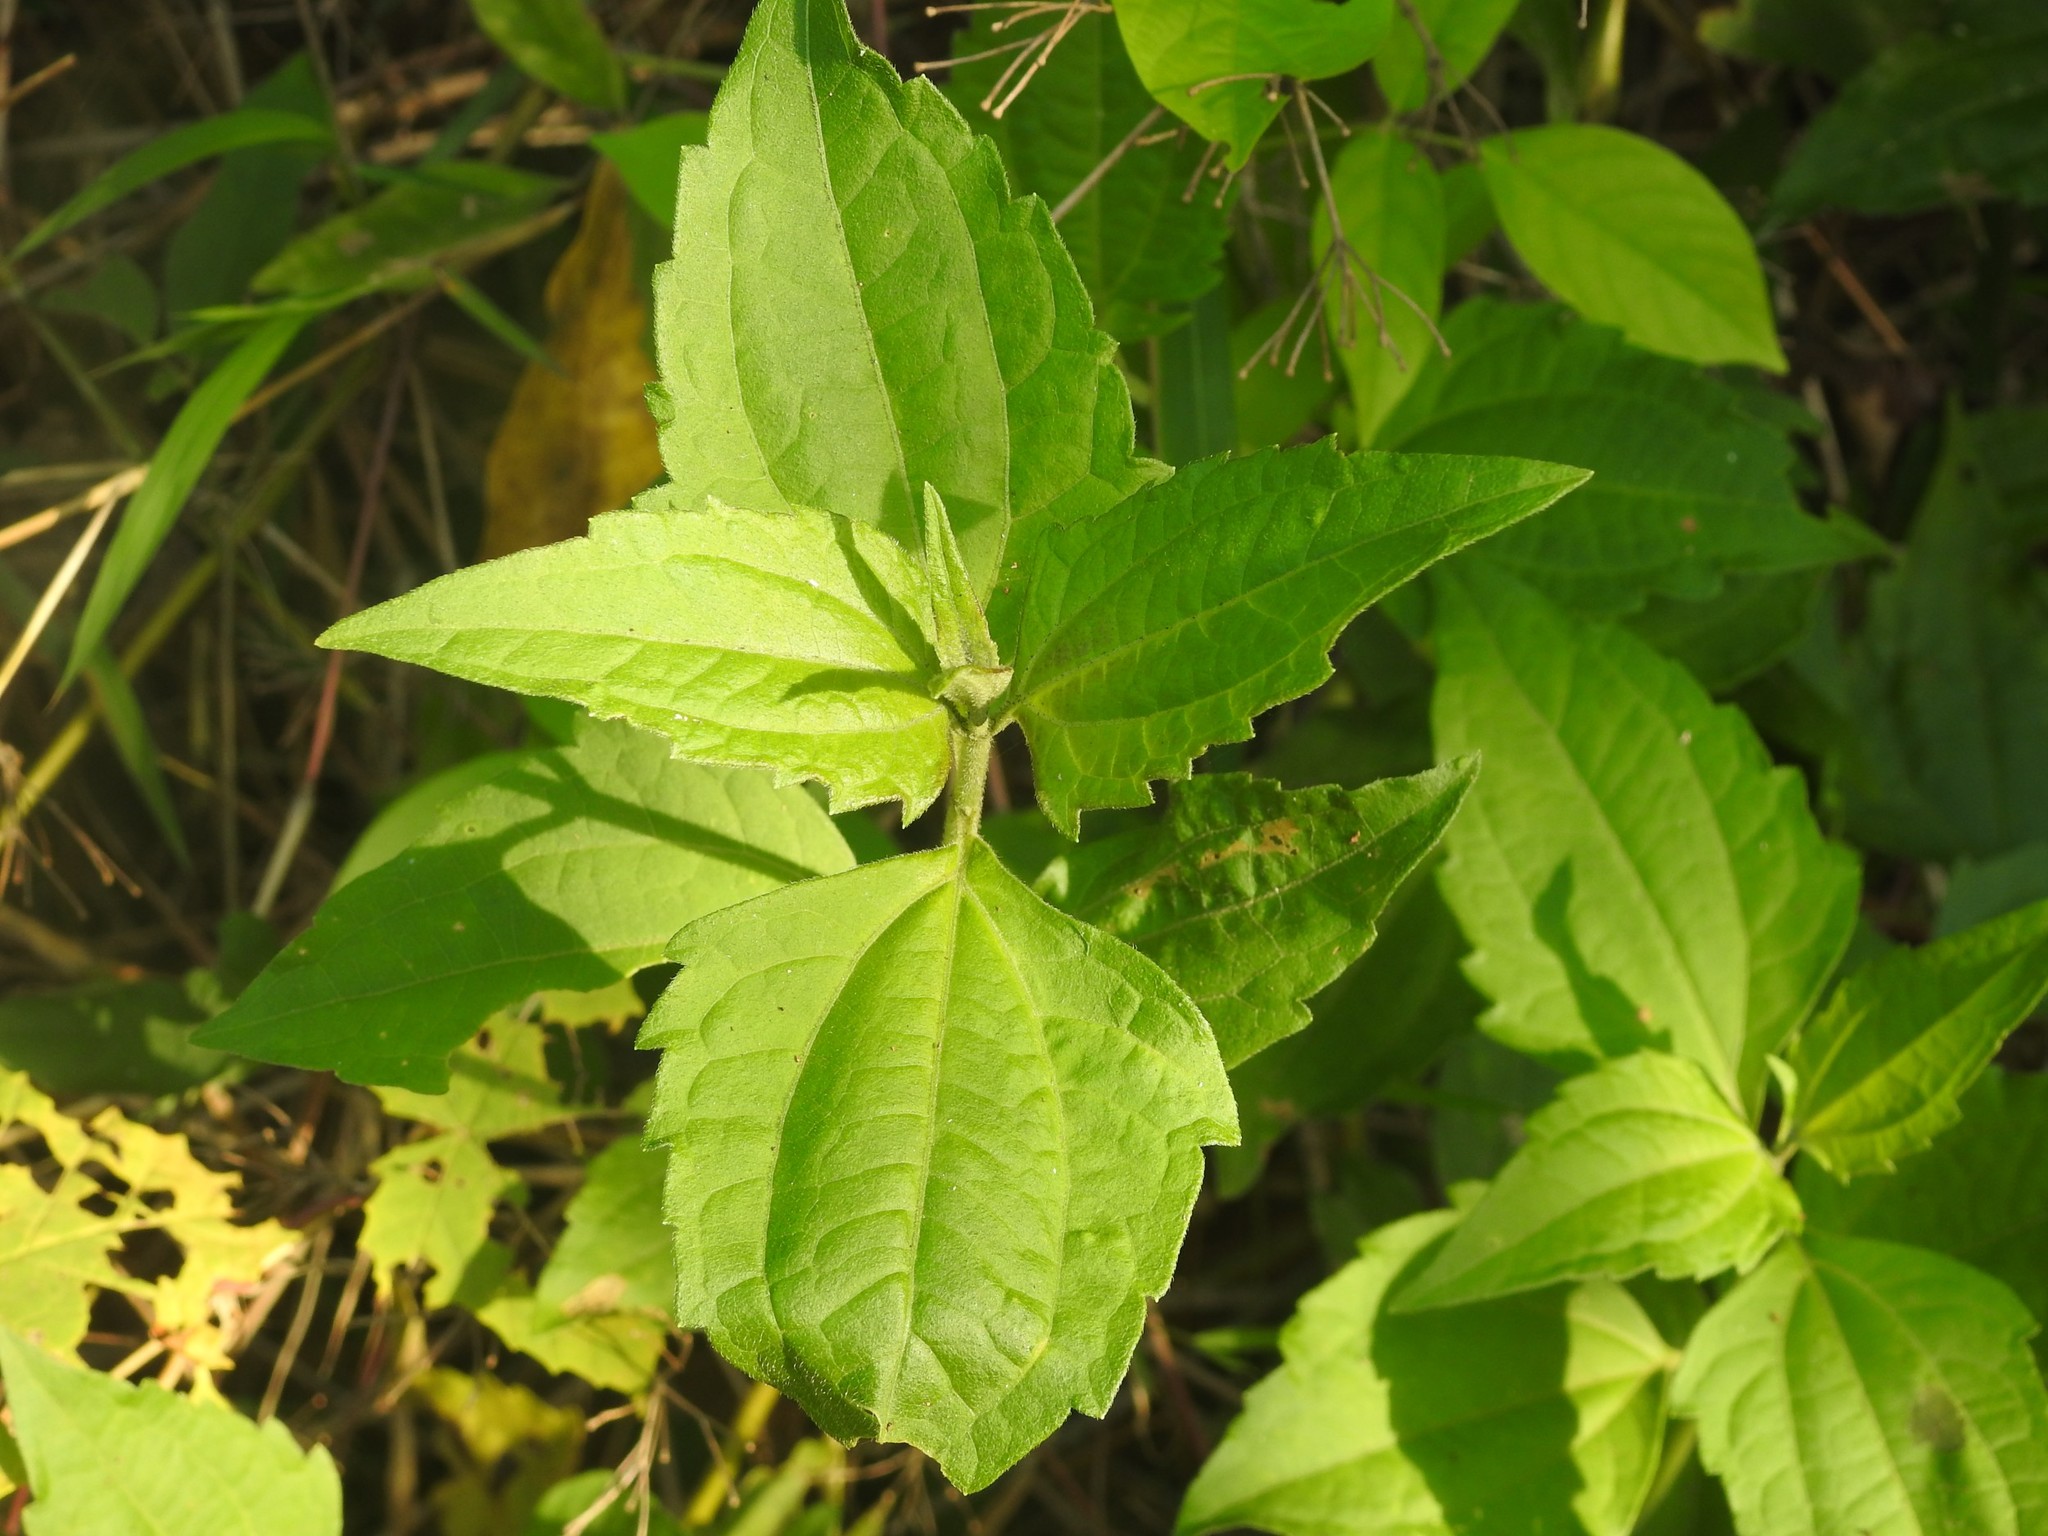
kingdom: Plantae
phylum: Tracheophyta
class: Magnoliopsida
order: Asterales
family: Asteraceae
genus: Chromolaena
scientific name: Chromolaena odorata
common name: Siamweed
